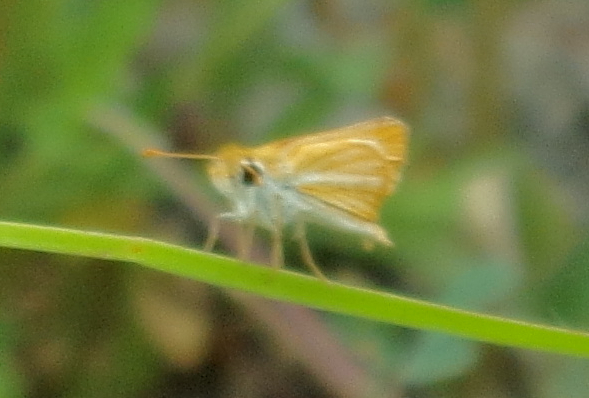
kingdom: Animalia
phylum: Arthropoda
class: Insecta
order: Lepidoptera
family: Hesperiidae
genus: Copaeodes
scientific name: Copaeodes minima
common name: Southern skipperling
